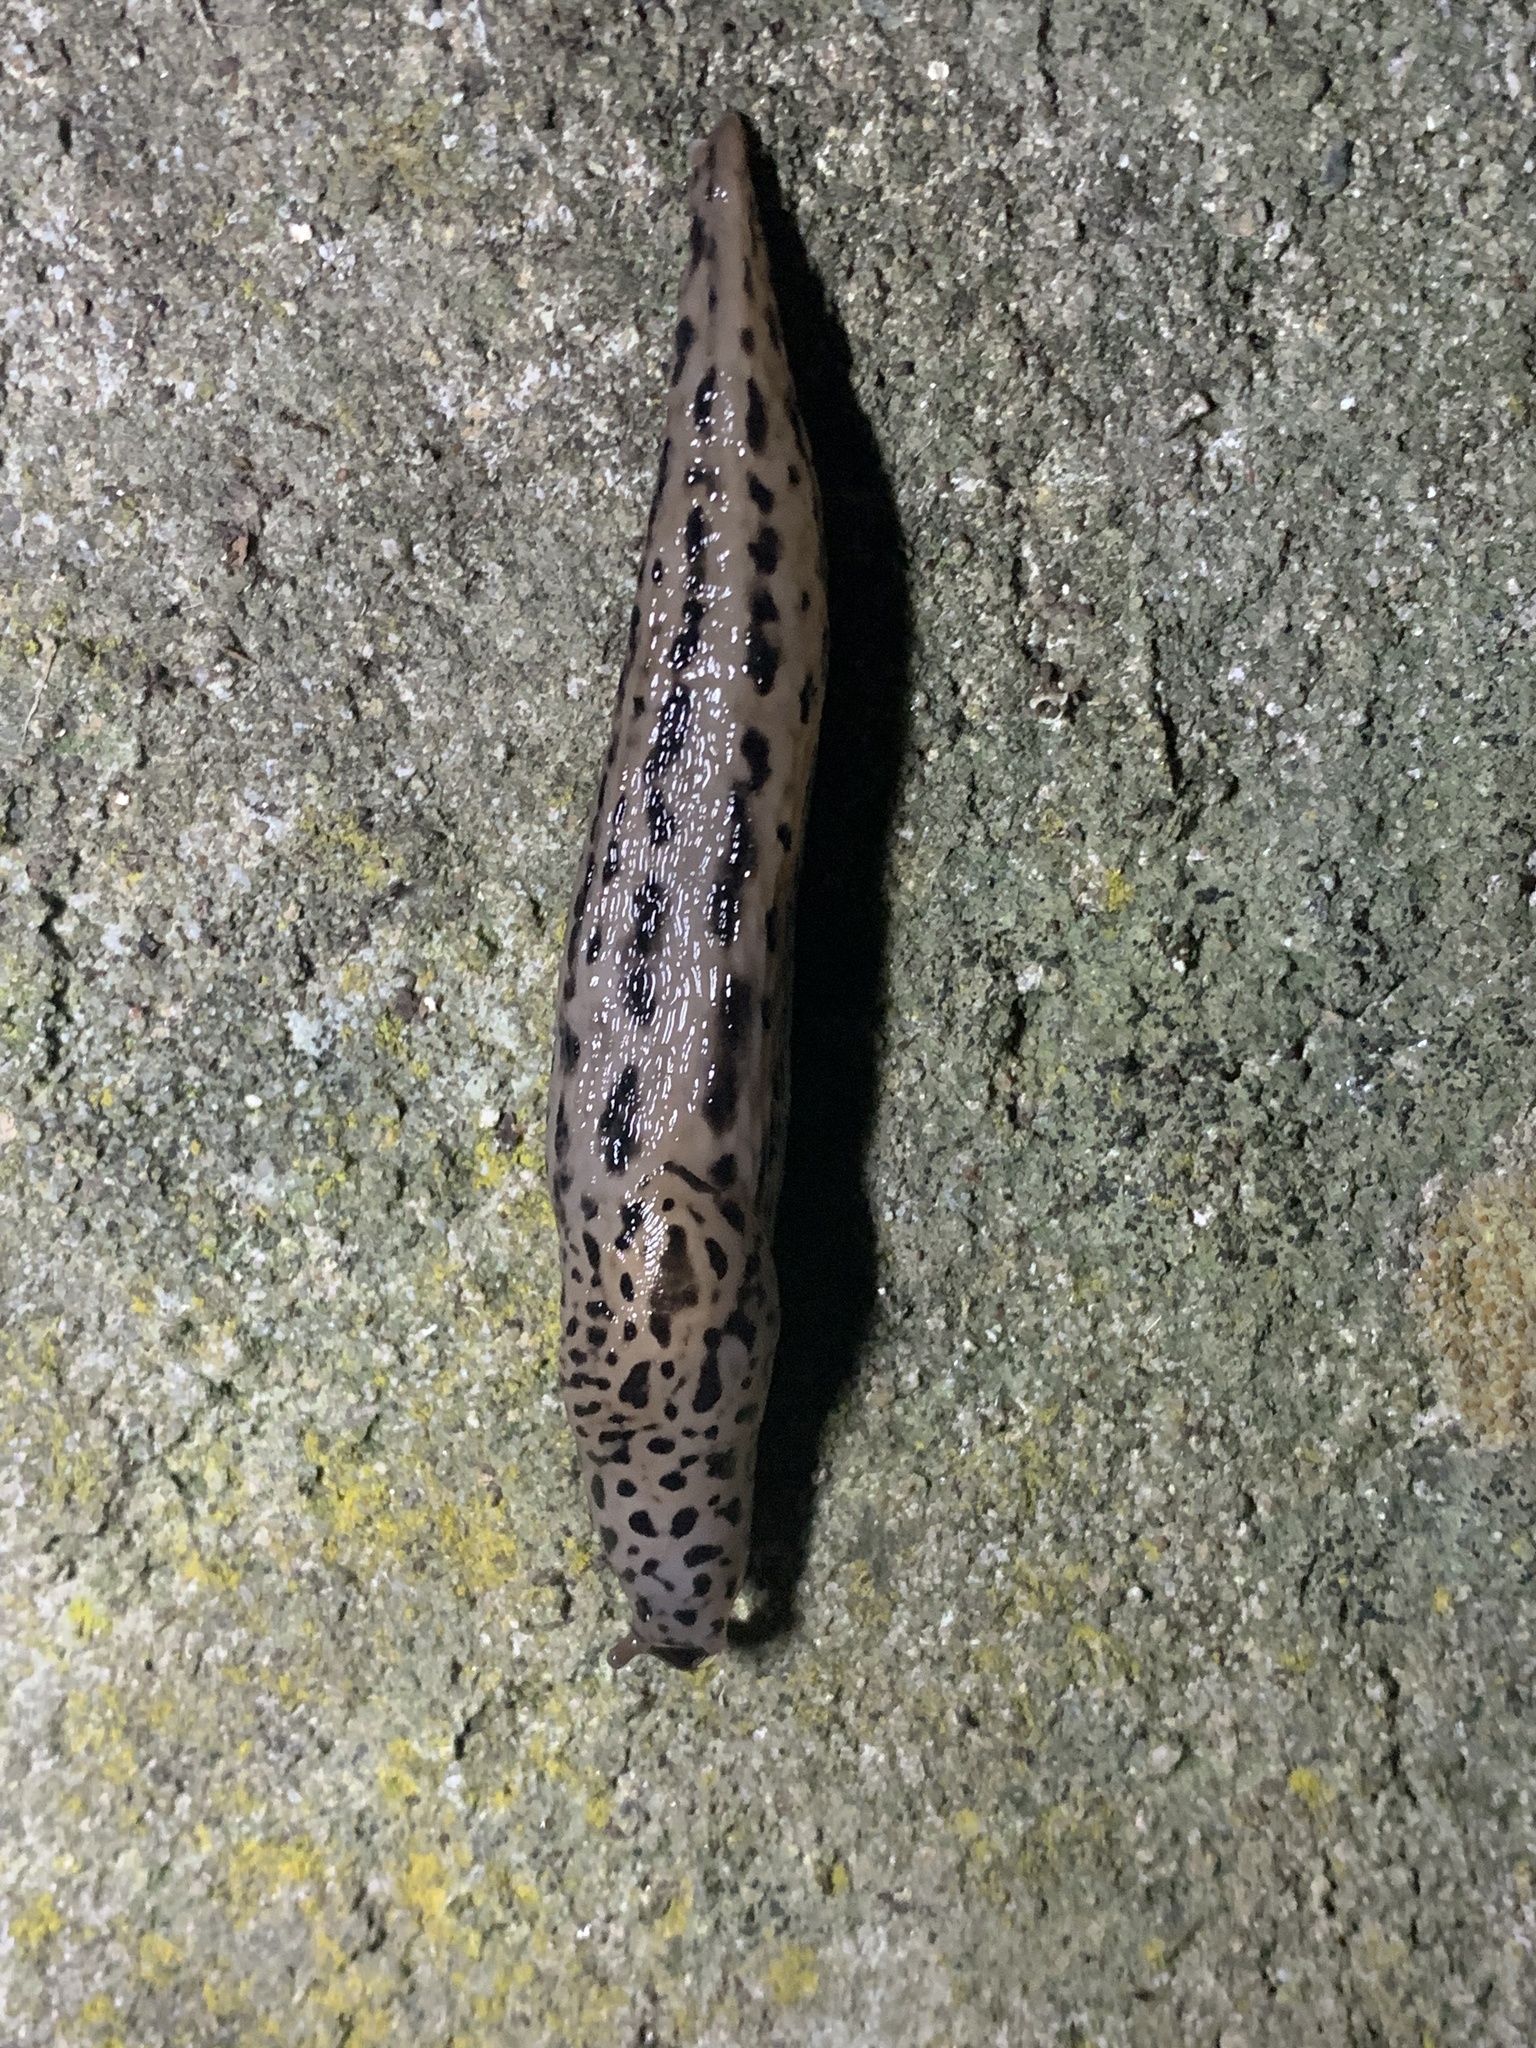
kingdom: Animalia
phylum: Mollusca
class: Gastropoda
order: Stylommatophora
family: Limacidae
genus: Limax
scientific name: Limax maximus
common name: Great grey slug
